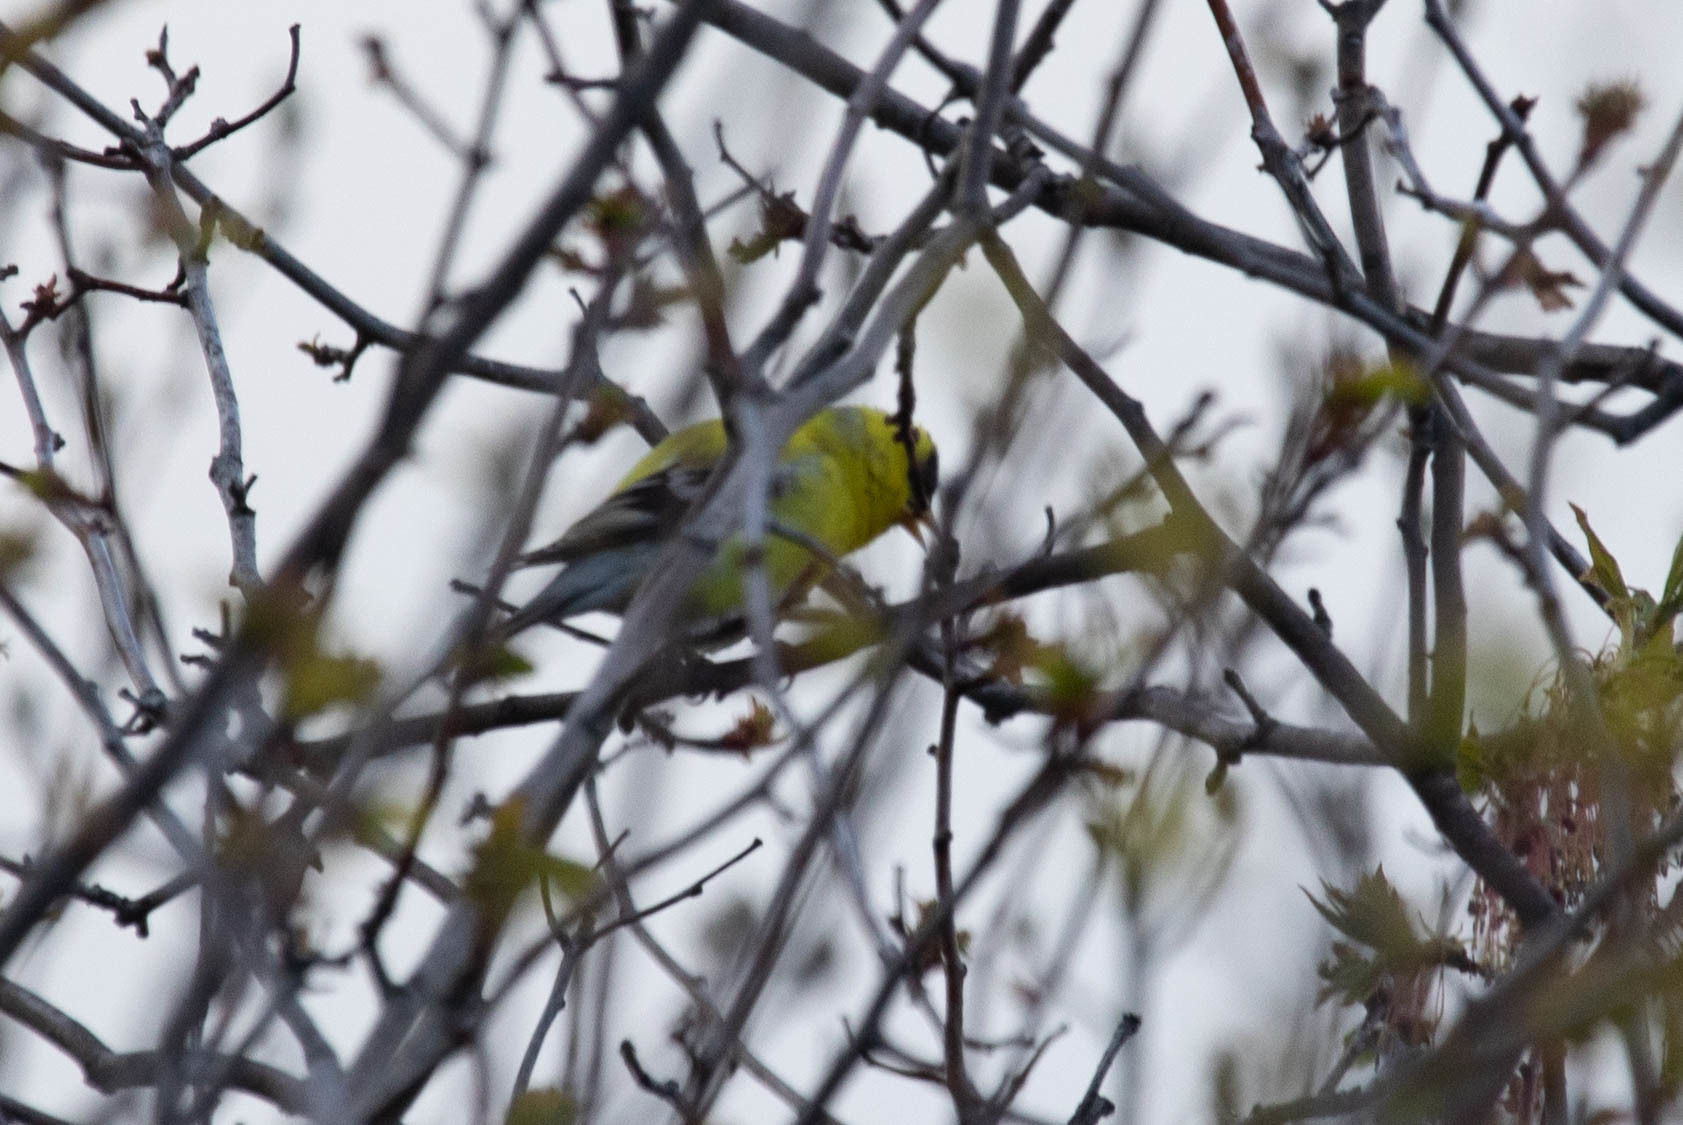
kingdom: Animalia
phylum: Chordata
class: Aves
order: Passeriformes
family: Fringillidae
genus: Spinus
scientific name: Spinus tristis
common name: American goldfinch
